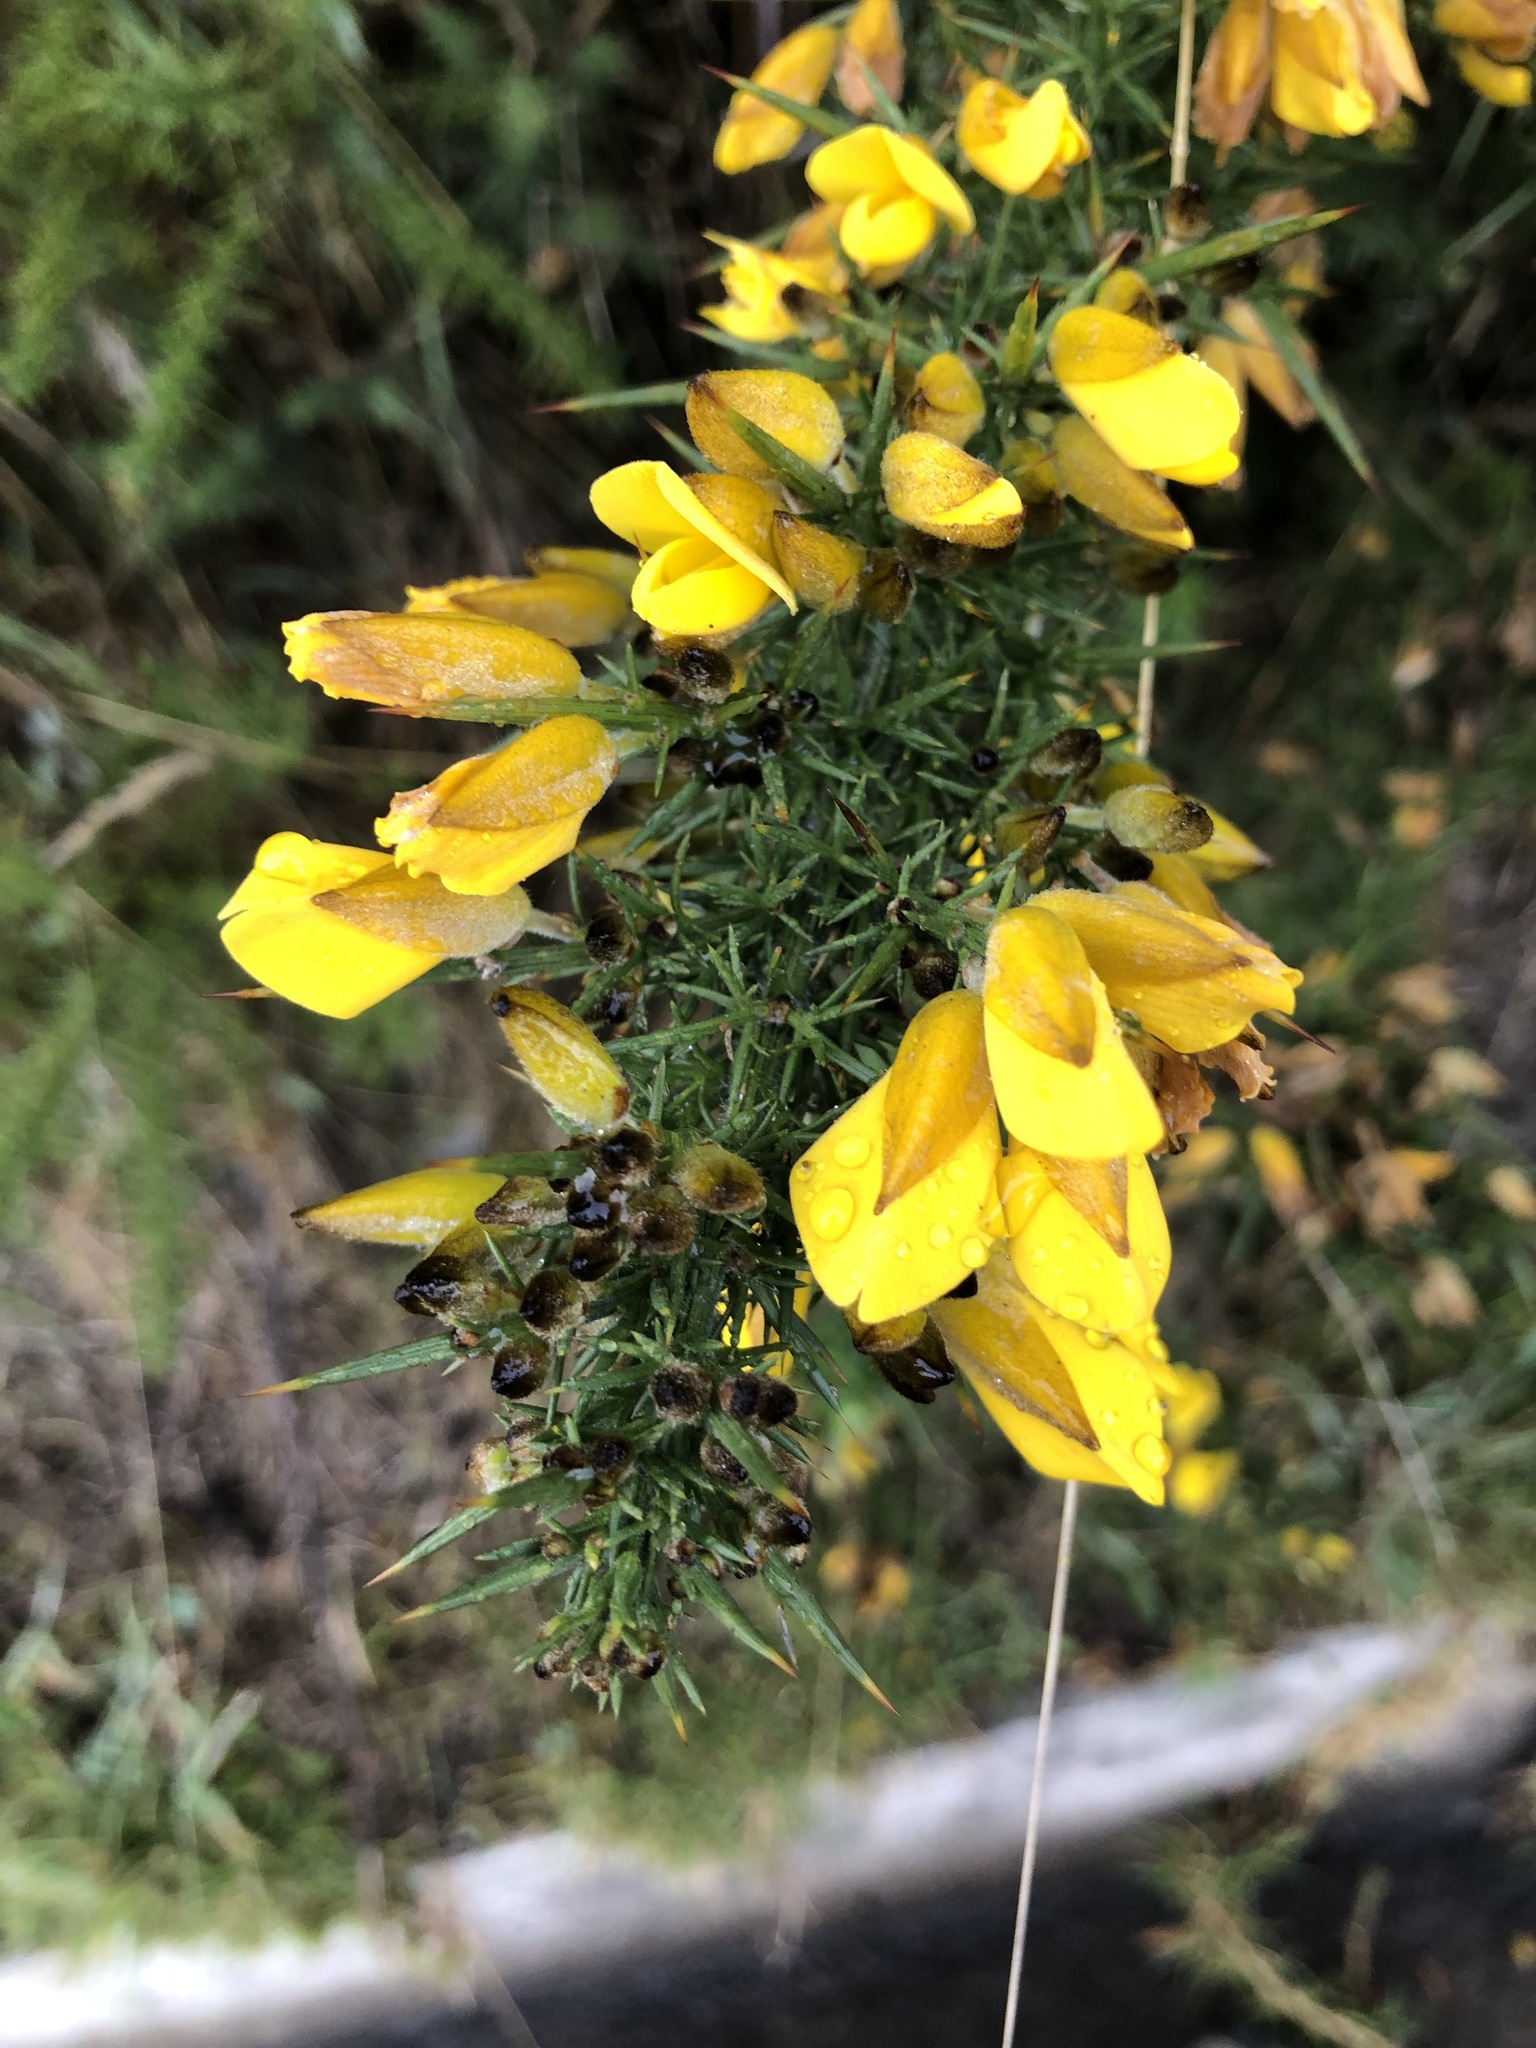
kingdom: Plantae
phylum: Tracheophyta
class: Magnoliopsida
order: Fabales
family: Fabaceae
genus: Ulex
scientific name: Ulex europaeus
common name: Common gorse
